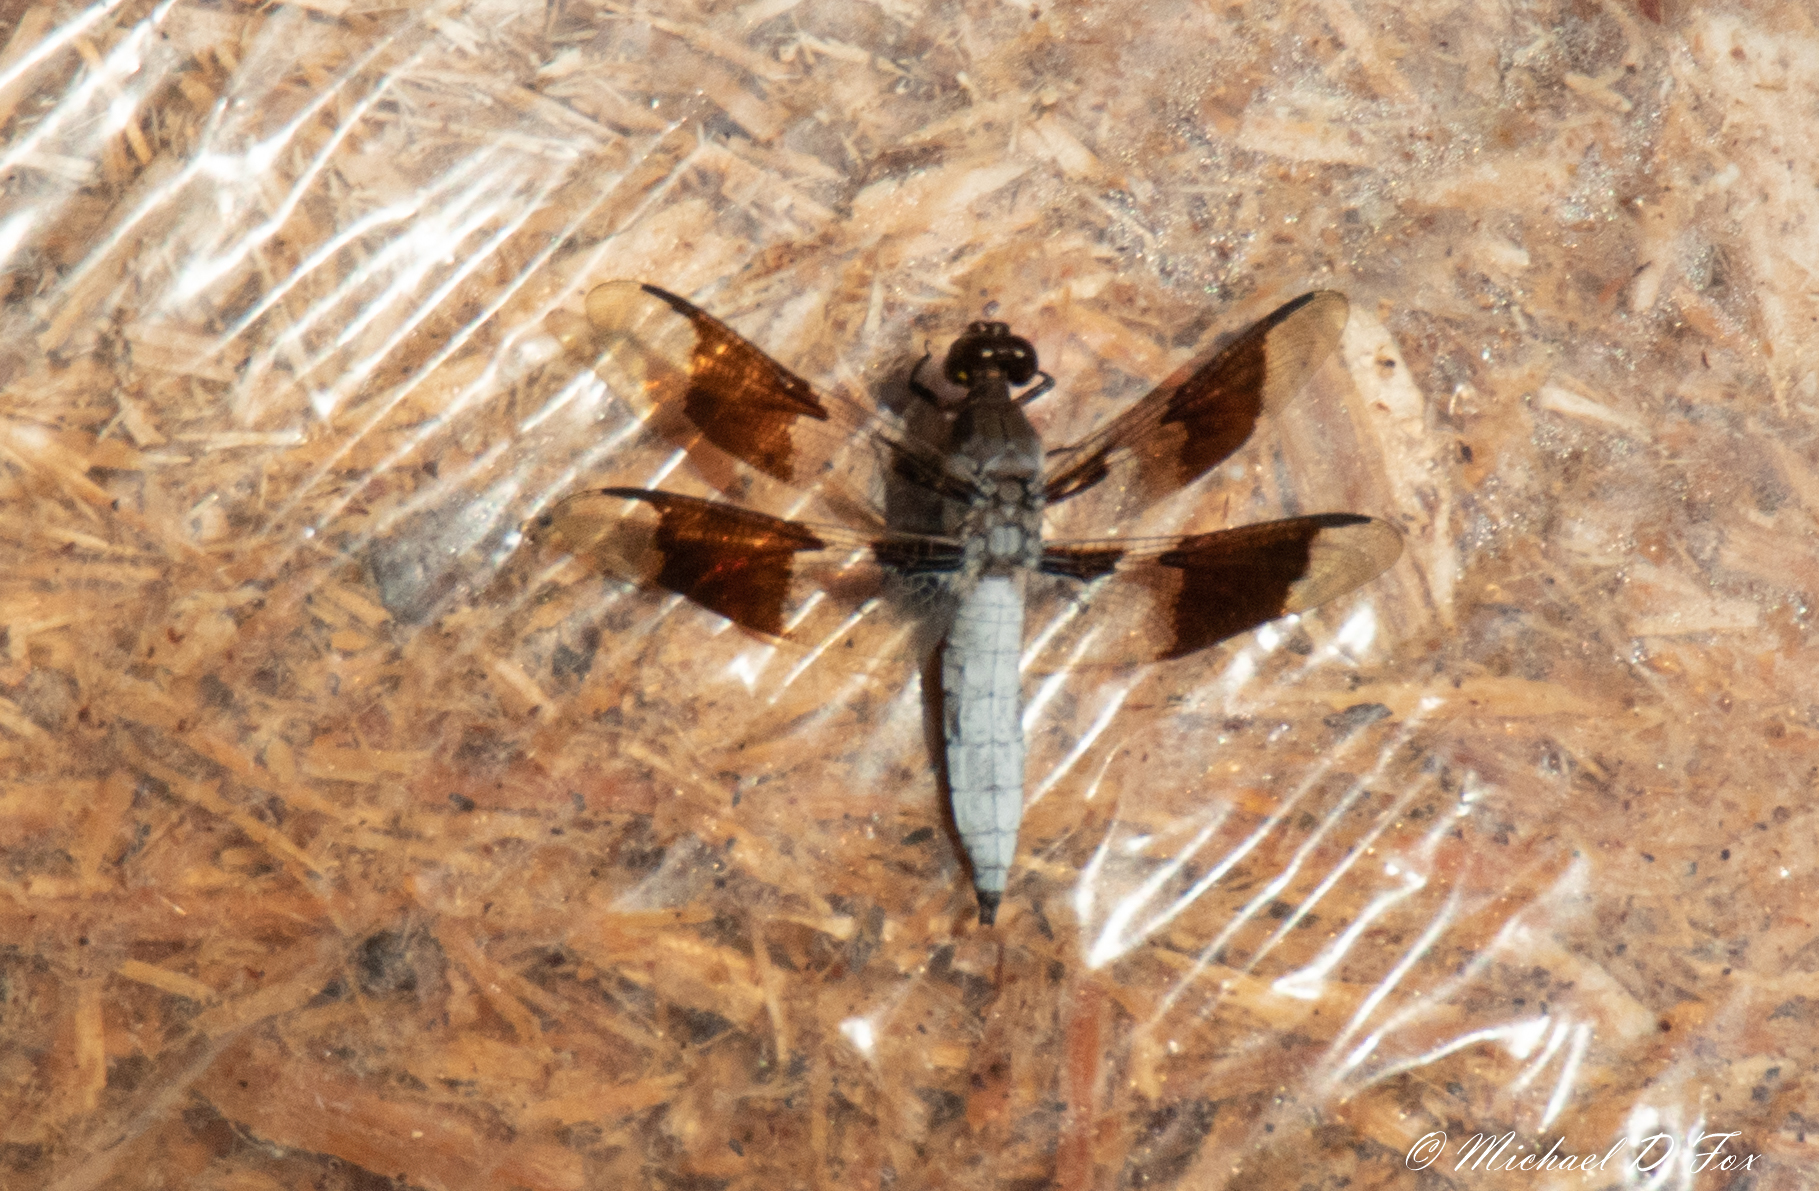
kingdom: Animalia
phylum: Arthropoda
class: Insecta
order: Odonata
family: Libellulidae
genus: Plathemis
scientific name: Plathemis lydia
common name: Common whitetail
